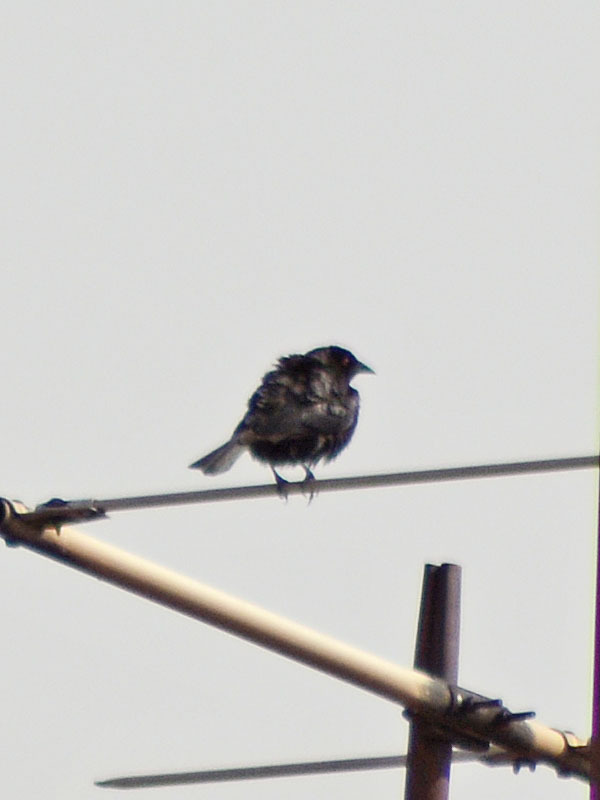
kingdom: Animalia
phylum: Chordata
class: Aves
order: Passeriformes
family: Icteridae
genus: Molothrus
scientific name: Molothrus aeneus
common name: Bronzed cowbird
